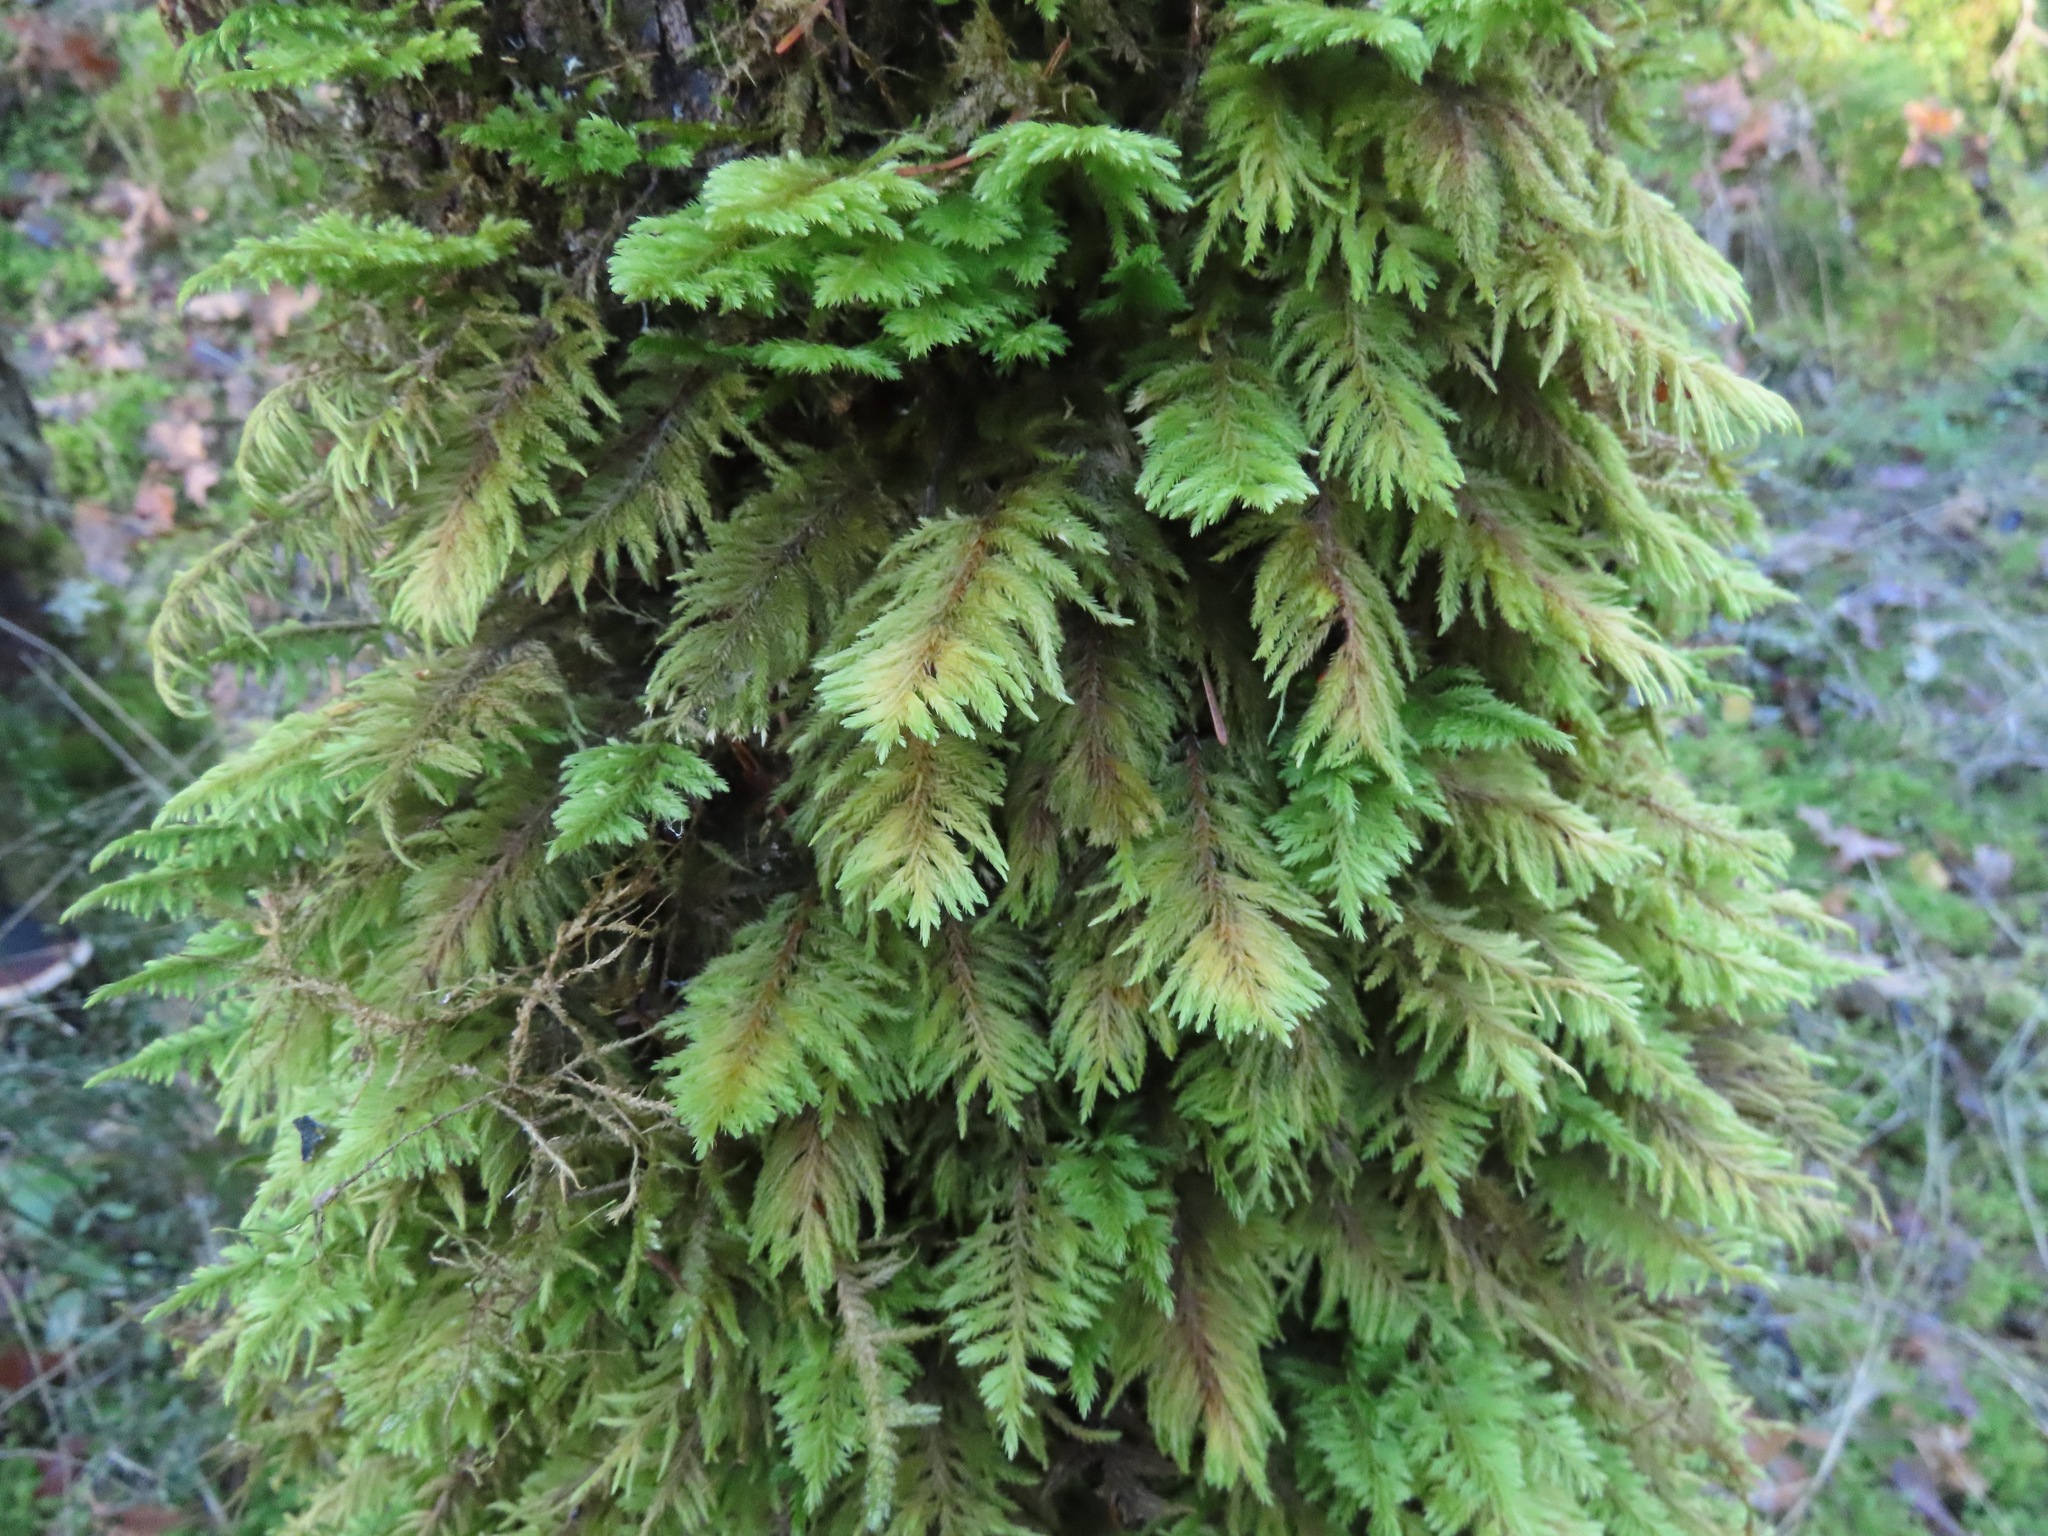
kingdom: Plantae
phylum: Bryophyta
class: Bryopsida
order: Hypnales
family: Cryphaeaceae
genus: Dendroalsia
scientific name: Dendroalsia abietina
